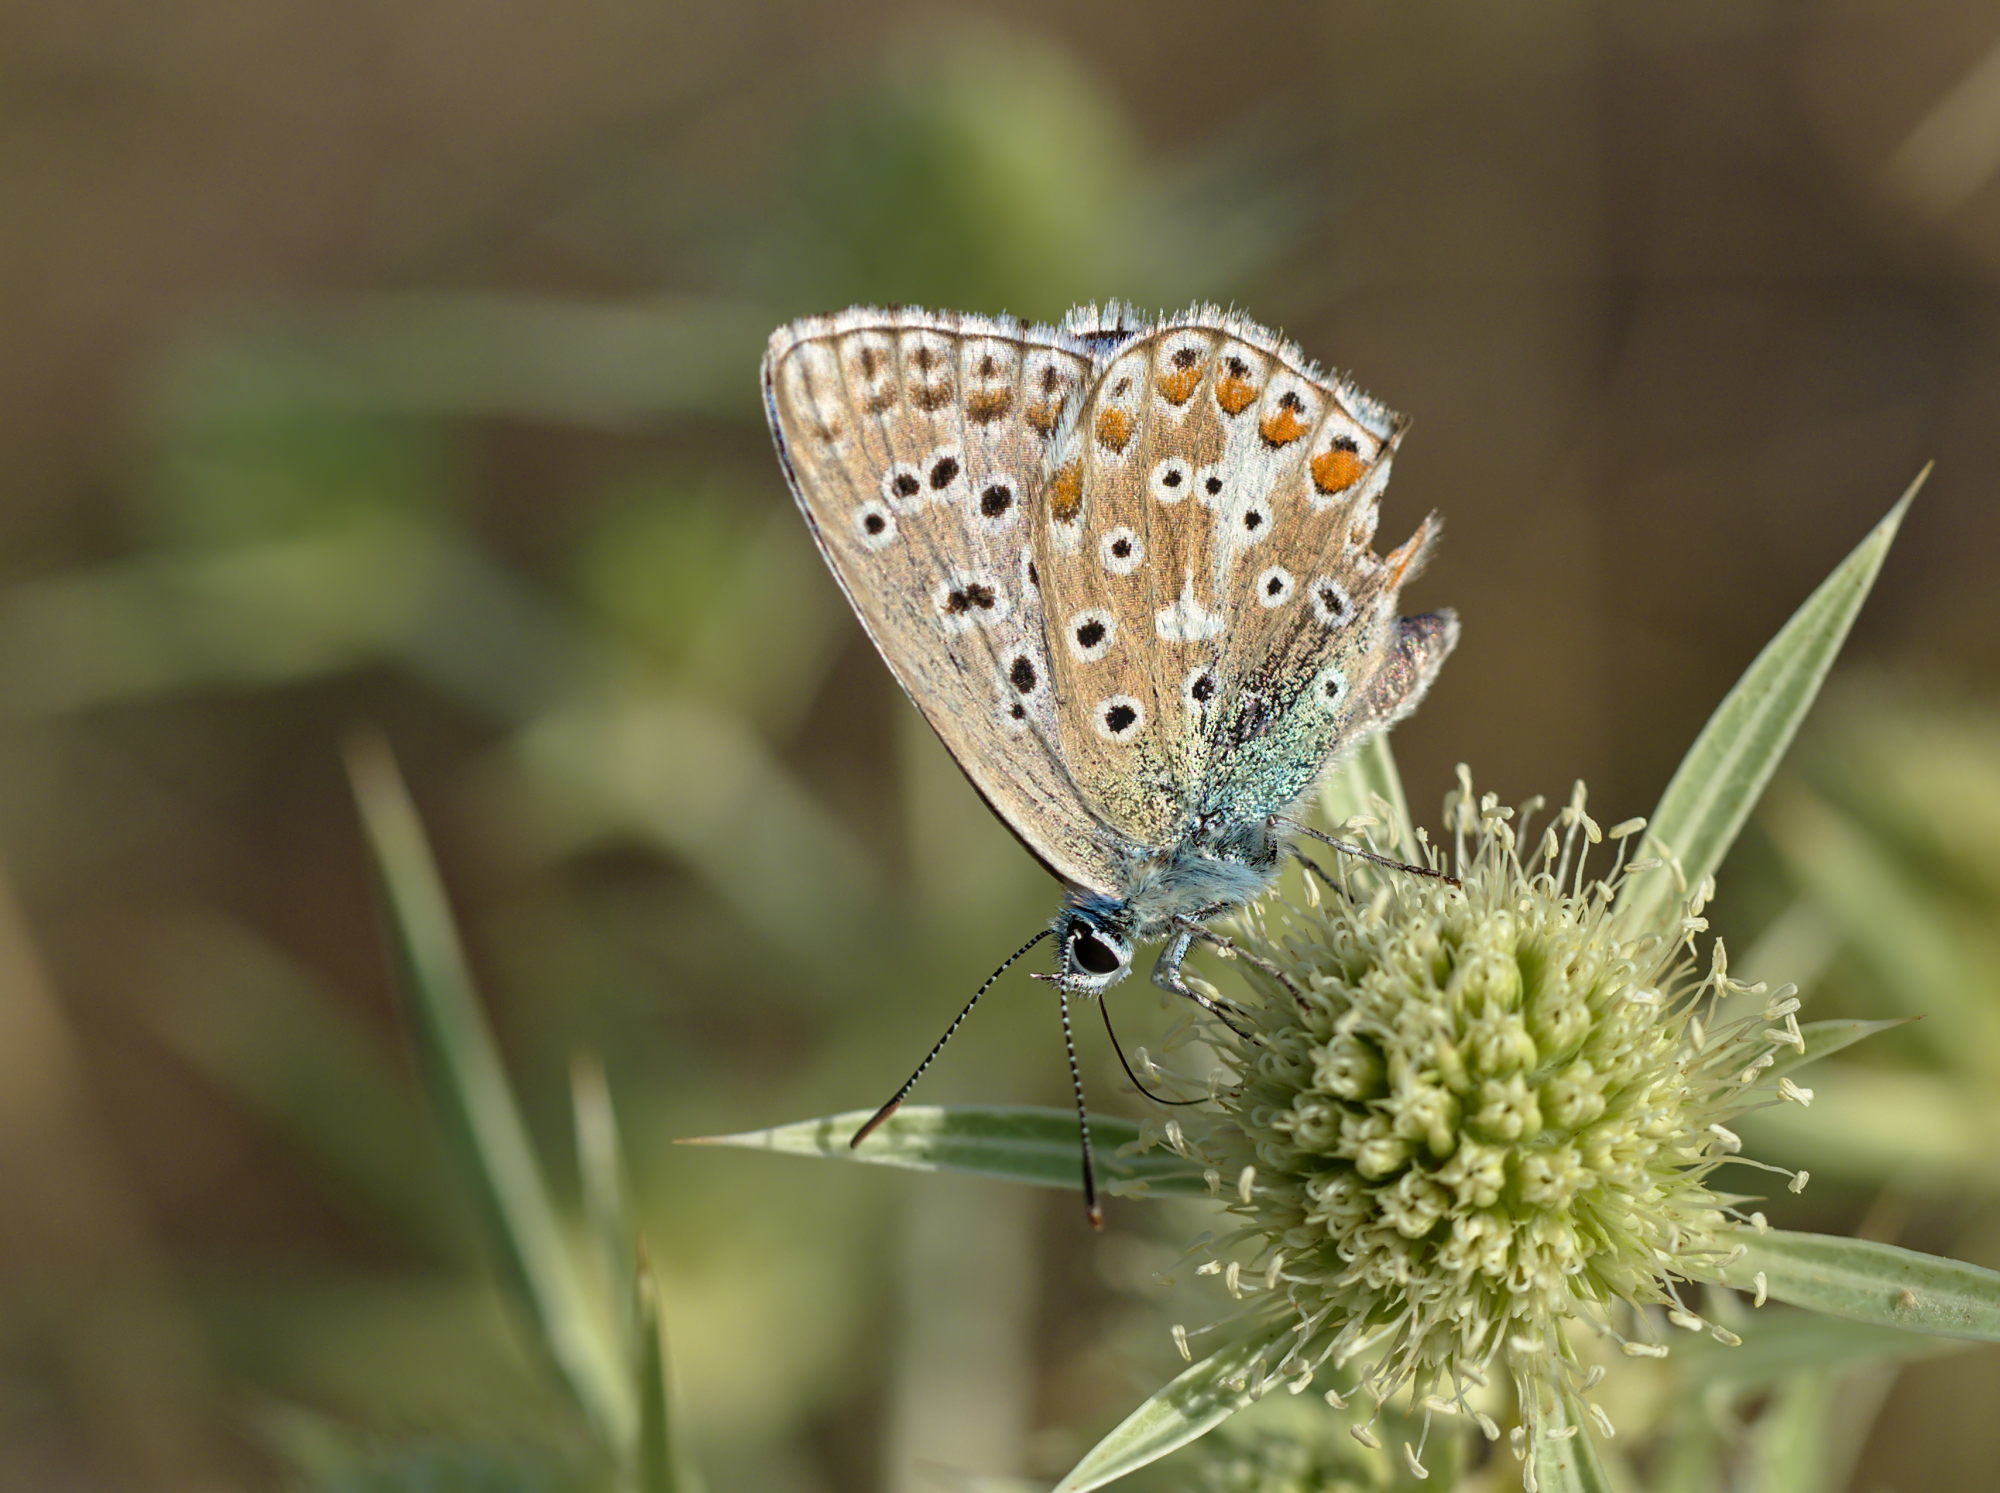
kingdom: Animalia
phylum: Arthropoda
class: Insecta
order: Lepidoptera
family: Lycaenidae
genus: Lysandra
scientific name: Lysandra bellargus
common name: Adonis blue
